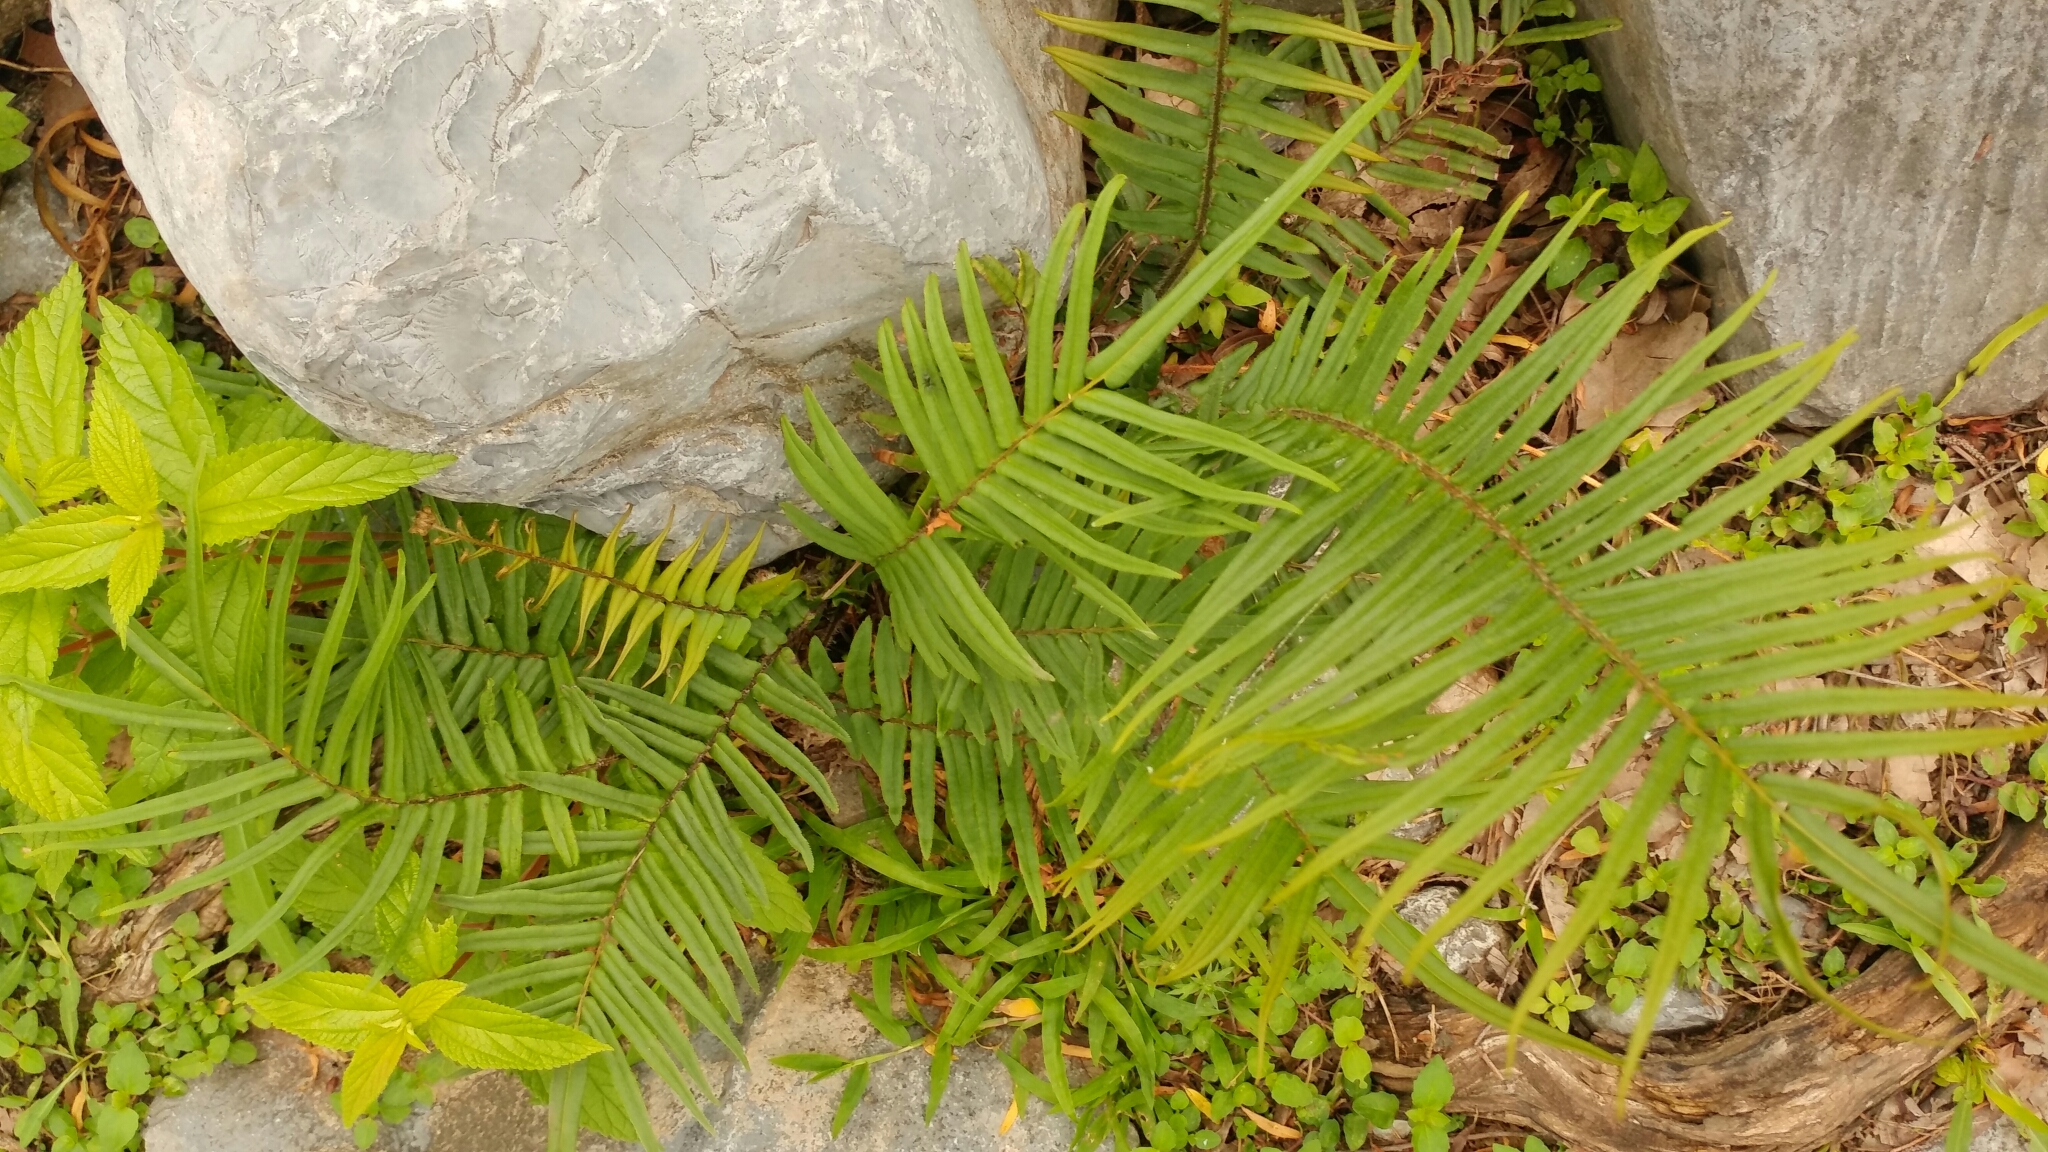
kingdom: Plantae
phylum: Tracheophyta
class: Polypodiopsida
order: Polypodiales
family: Pteridaceae
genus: Pteris
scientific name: Pteris vittata
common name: Ladder brake
